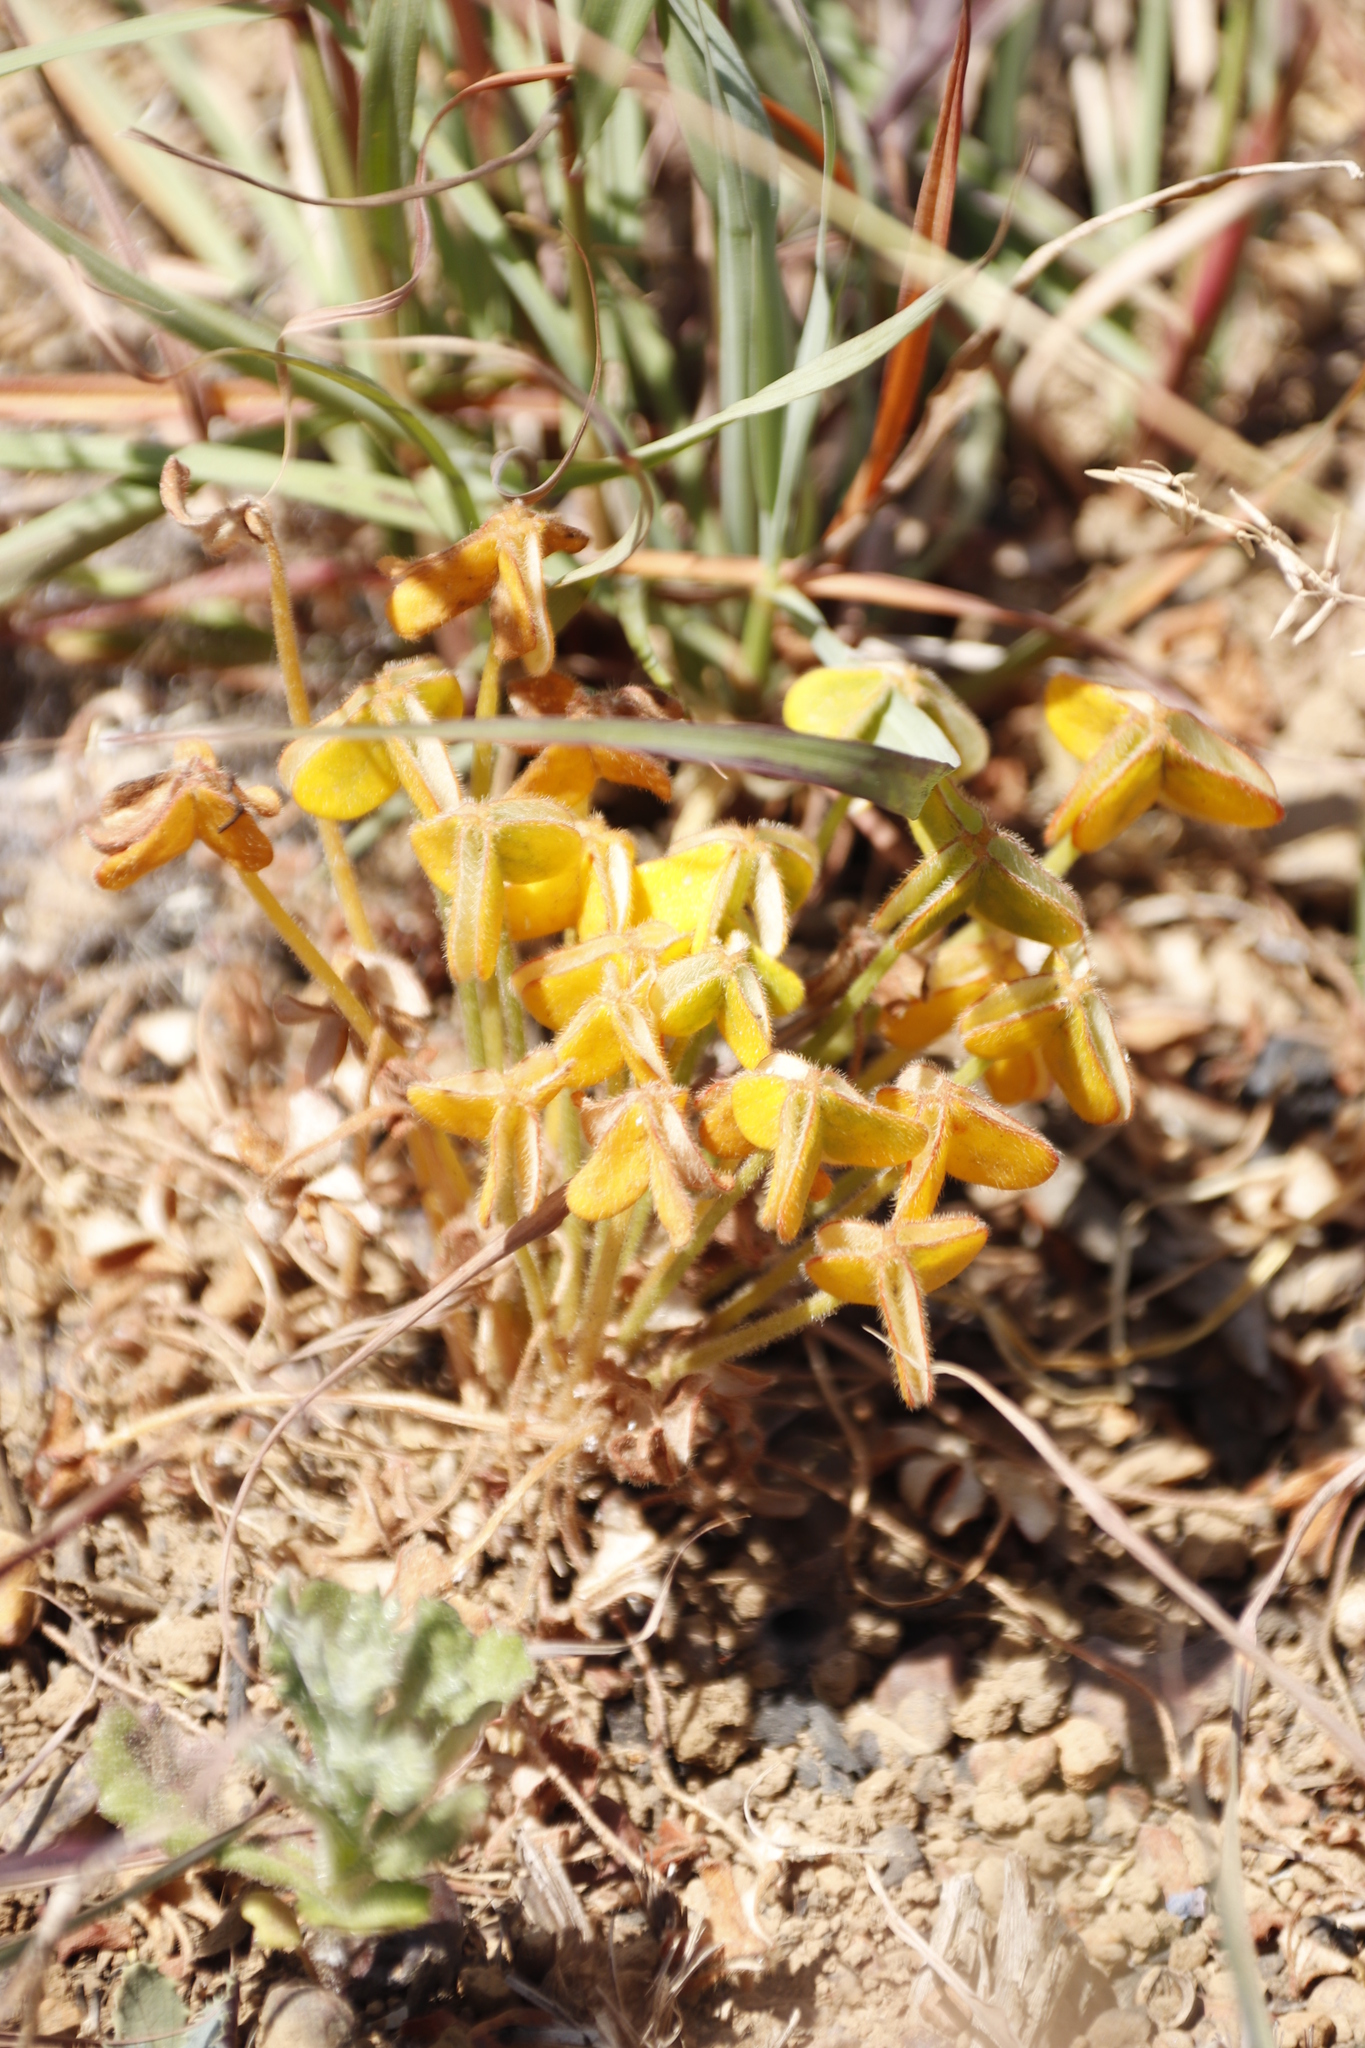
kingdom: Plantae
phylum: Tracheophyta
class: Magnoliopsida
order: Oxalidales
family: Oxalidaceae
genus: Oxalis
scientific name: Oxalis compressa
